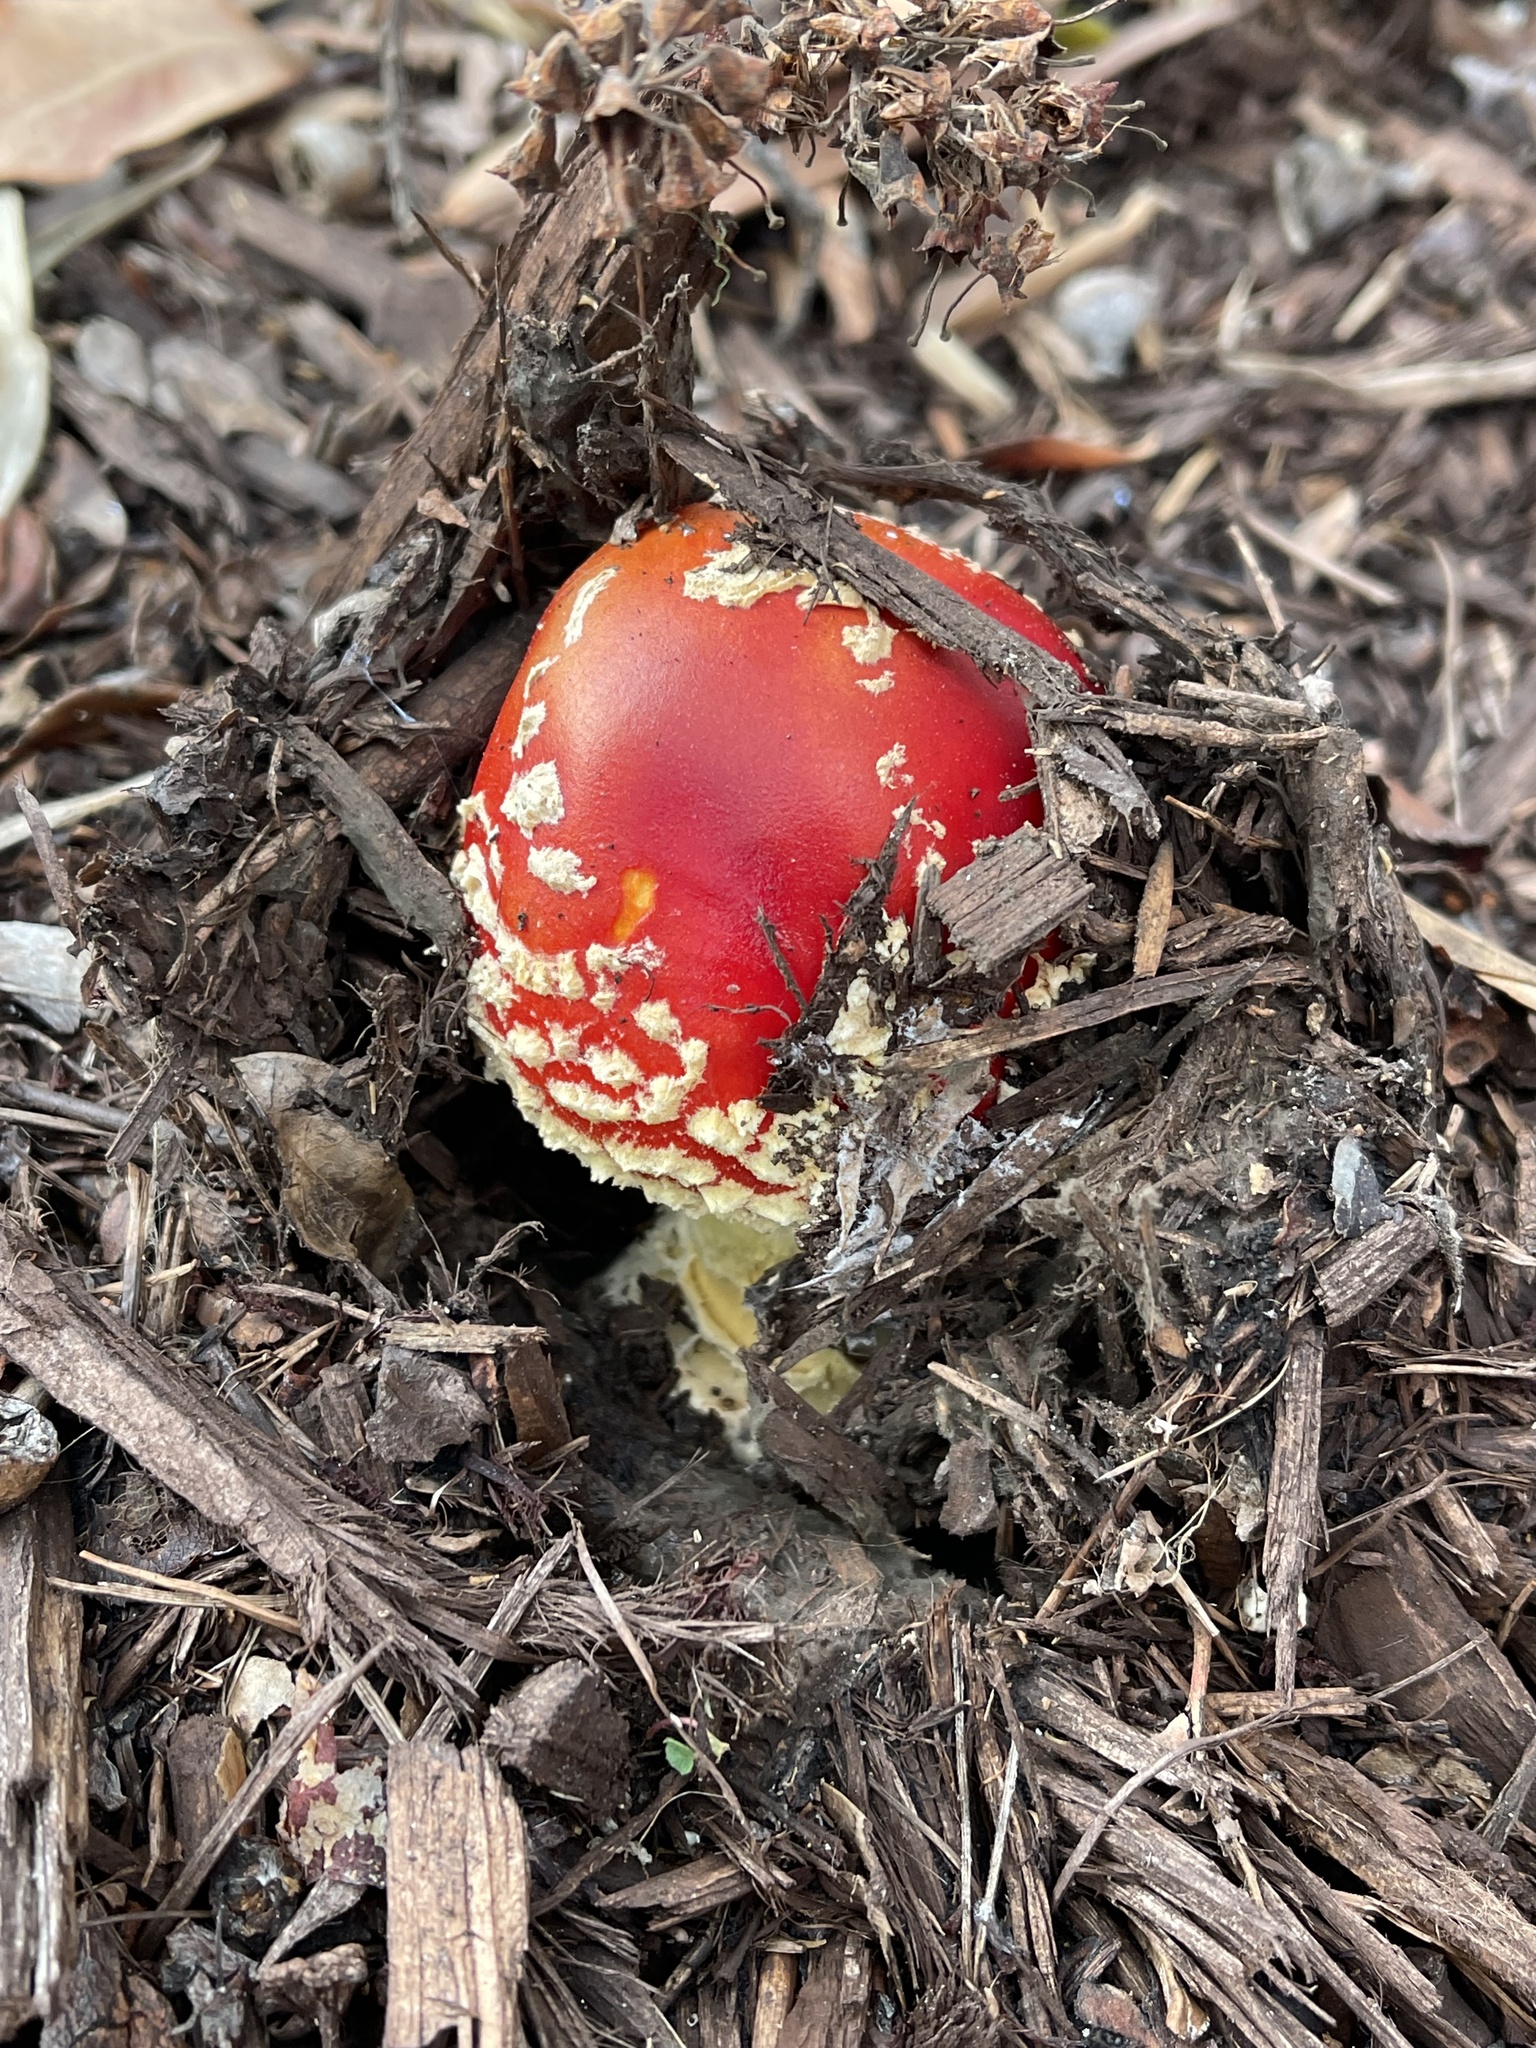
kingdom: Fungi
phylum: Basidiomycota
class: Agaricomycetes
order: Agaricales
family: Amanitaceae
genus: Amanita
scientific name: Amanita muscaria
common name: Fly agaric
